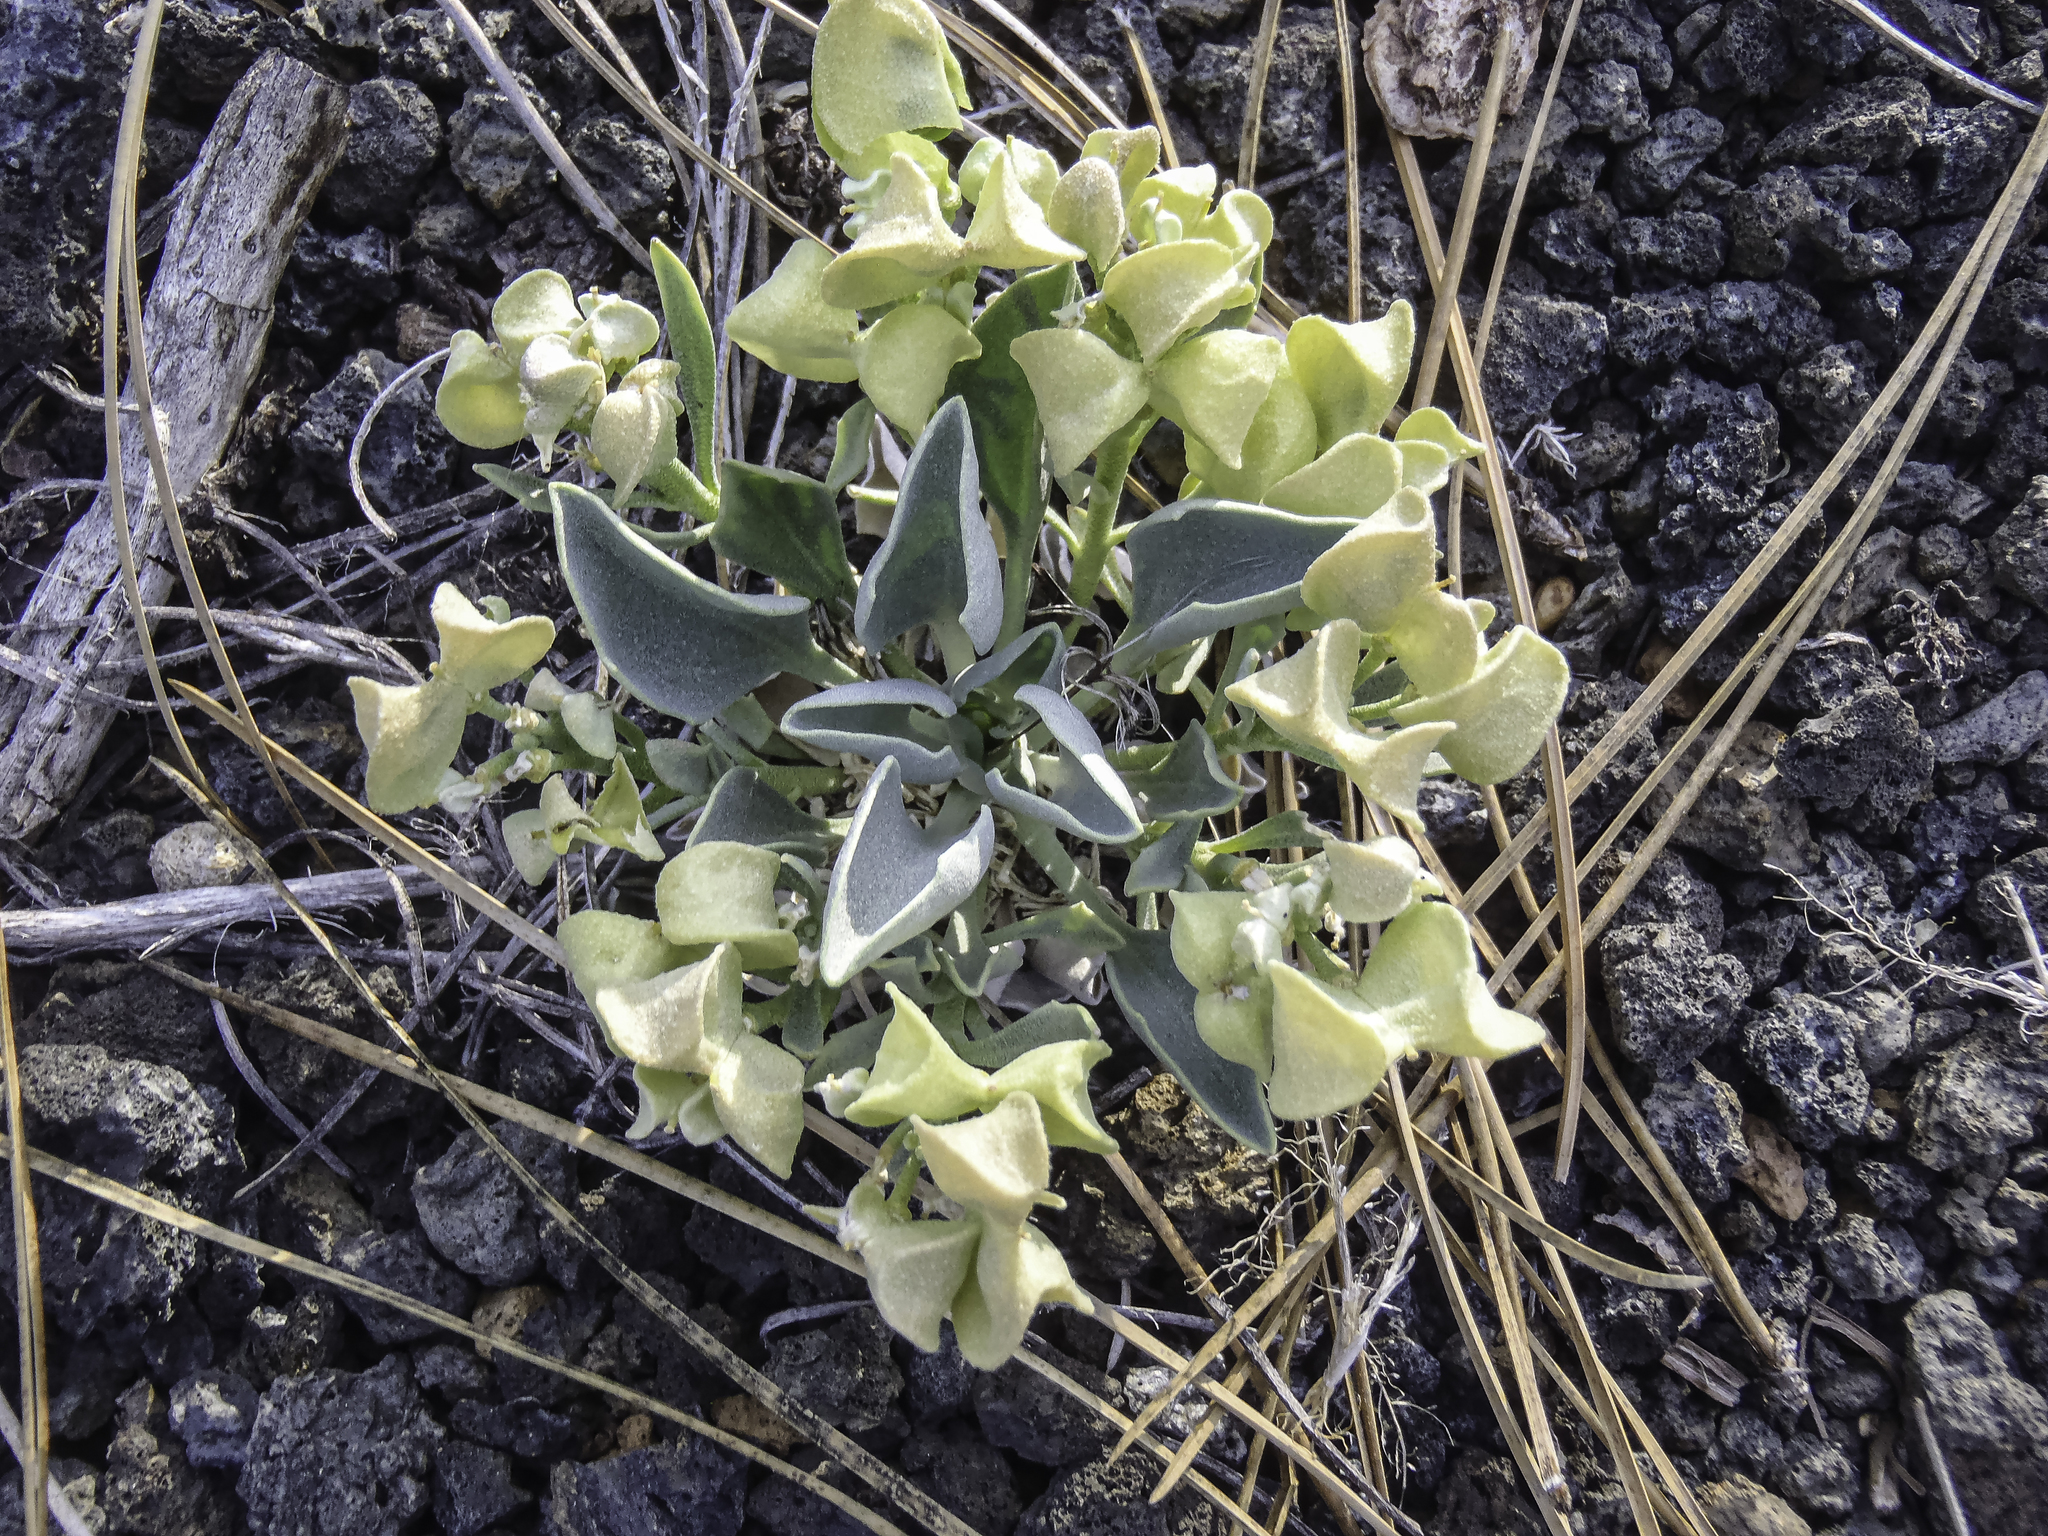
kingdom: Plantae
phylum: Tracheophyta
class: Magnoliopsida
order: Brassicales
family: Brassicaceae
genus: Physaria
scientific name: Physaria newberryi
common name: Newberry twinpod
